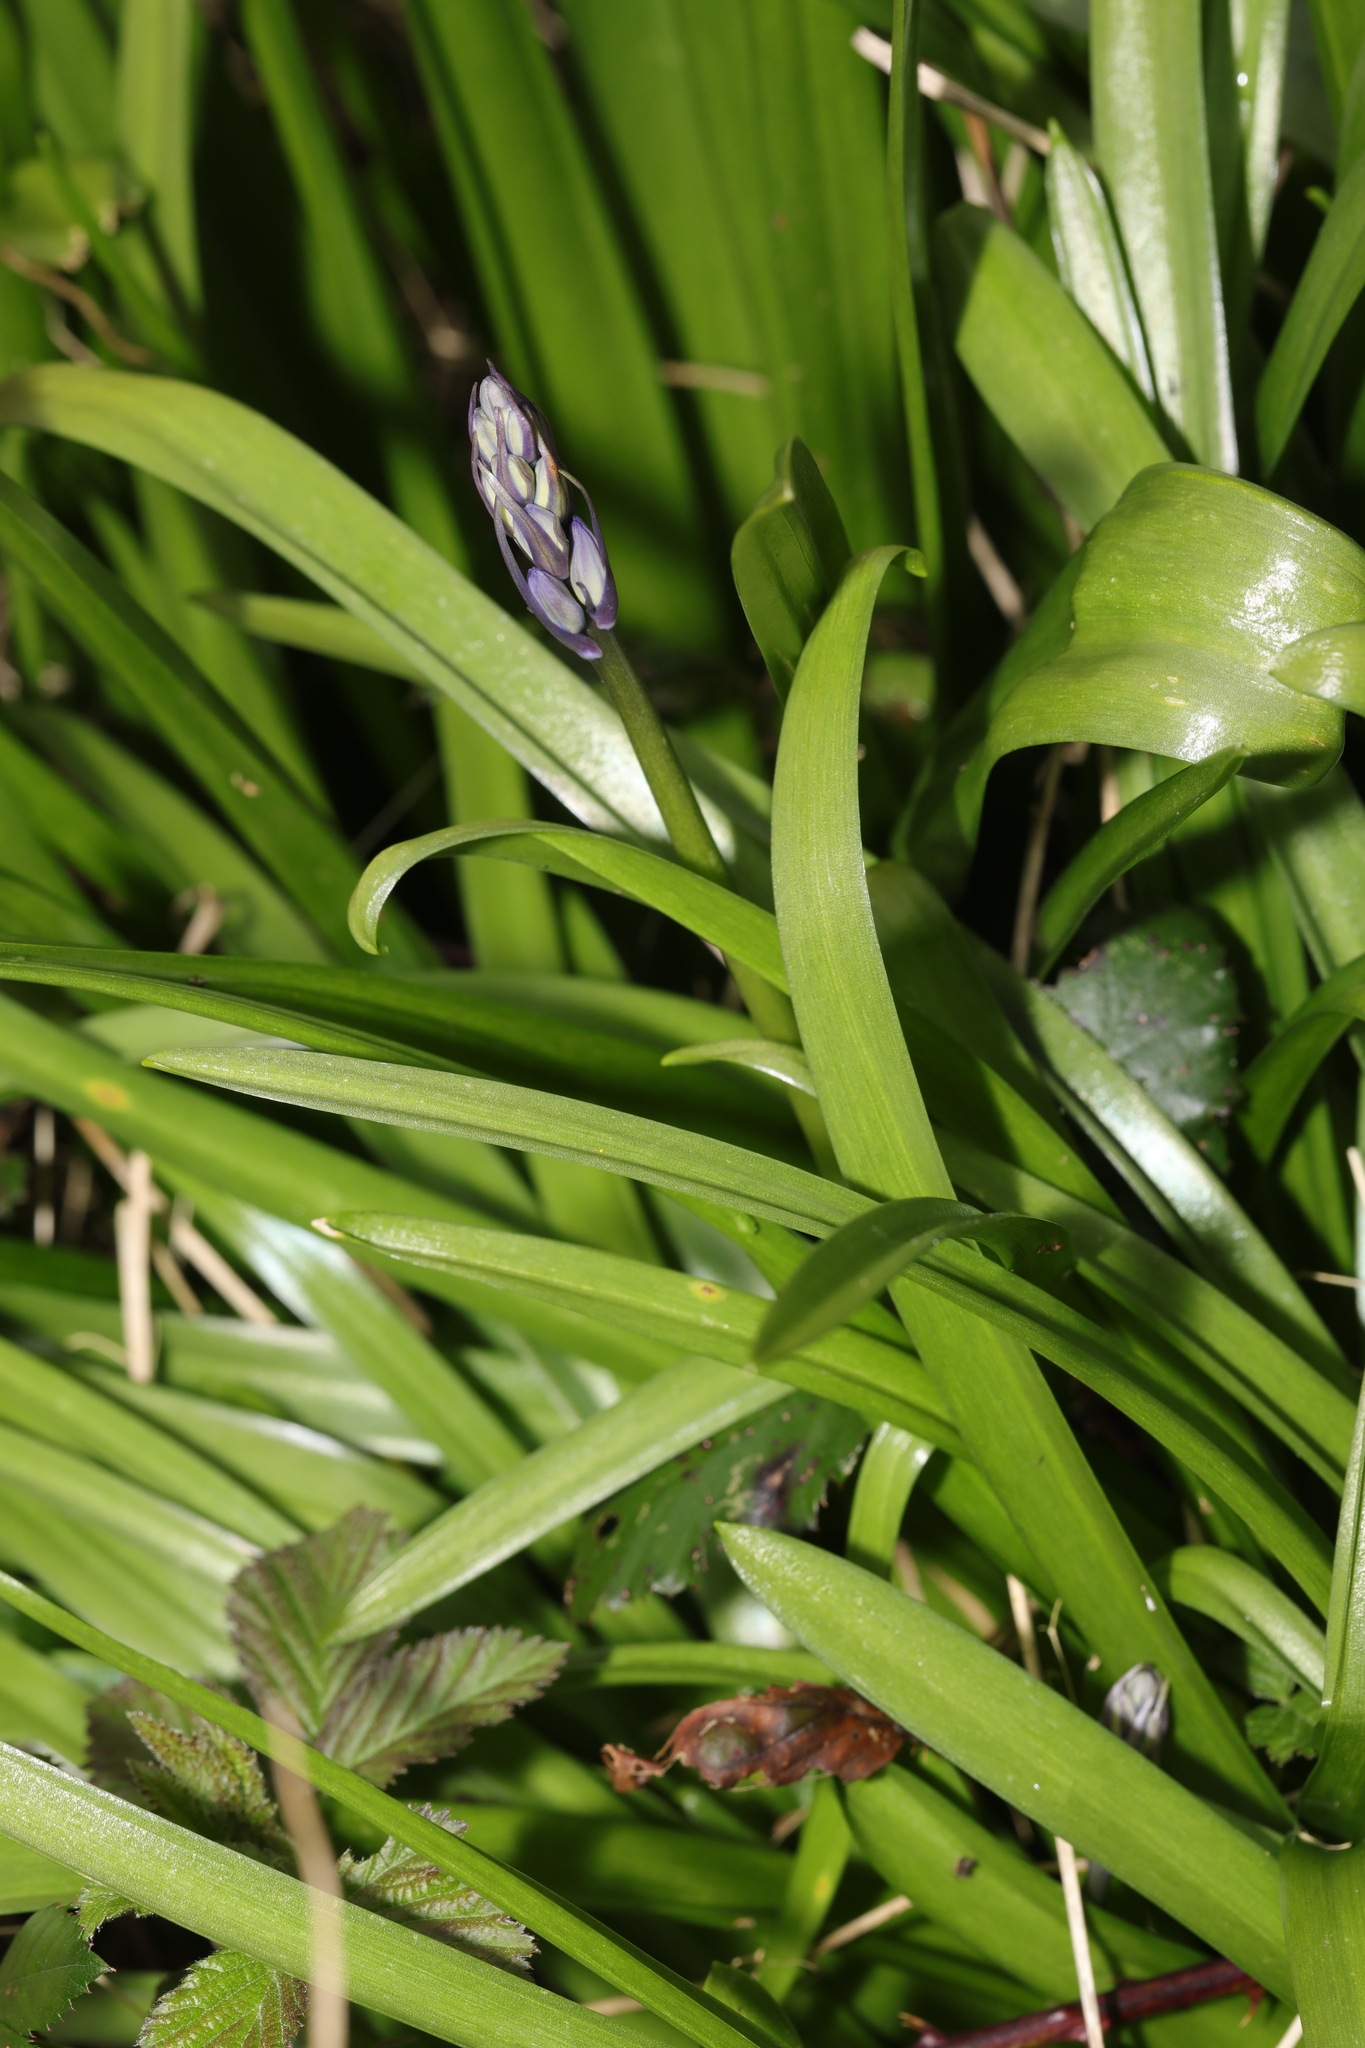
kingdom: Plantae
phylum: Tracheophyta
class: Liliopsida
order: Asparagales
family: Asparagaceae
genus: Hyacinthoides
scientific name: Hyacinthoides massartiana
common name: Hyacinthoides
